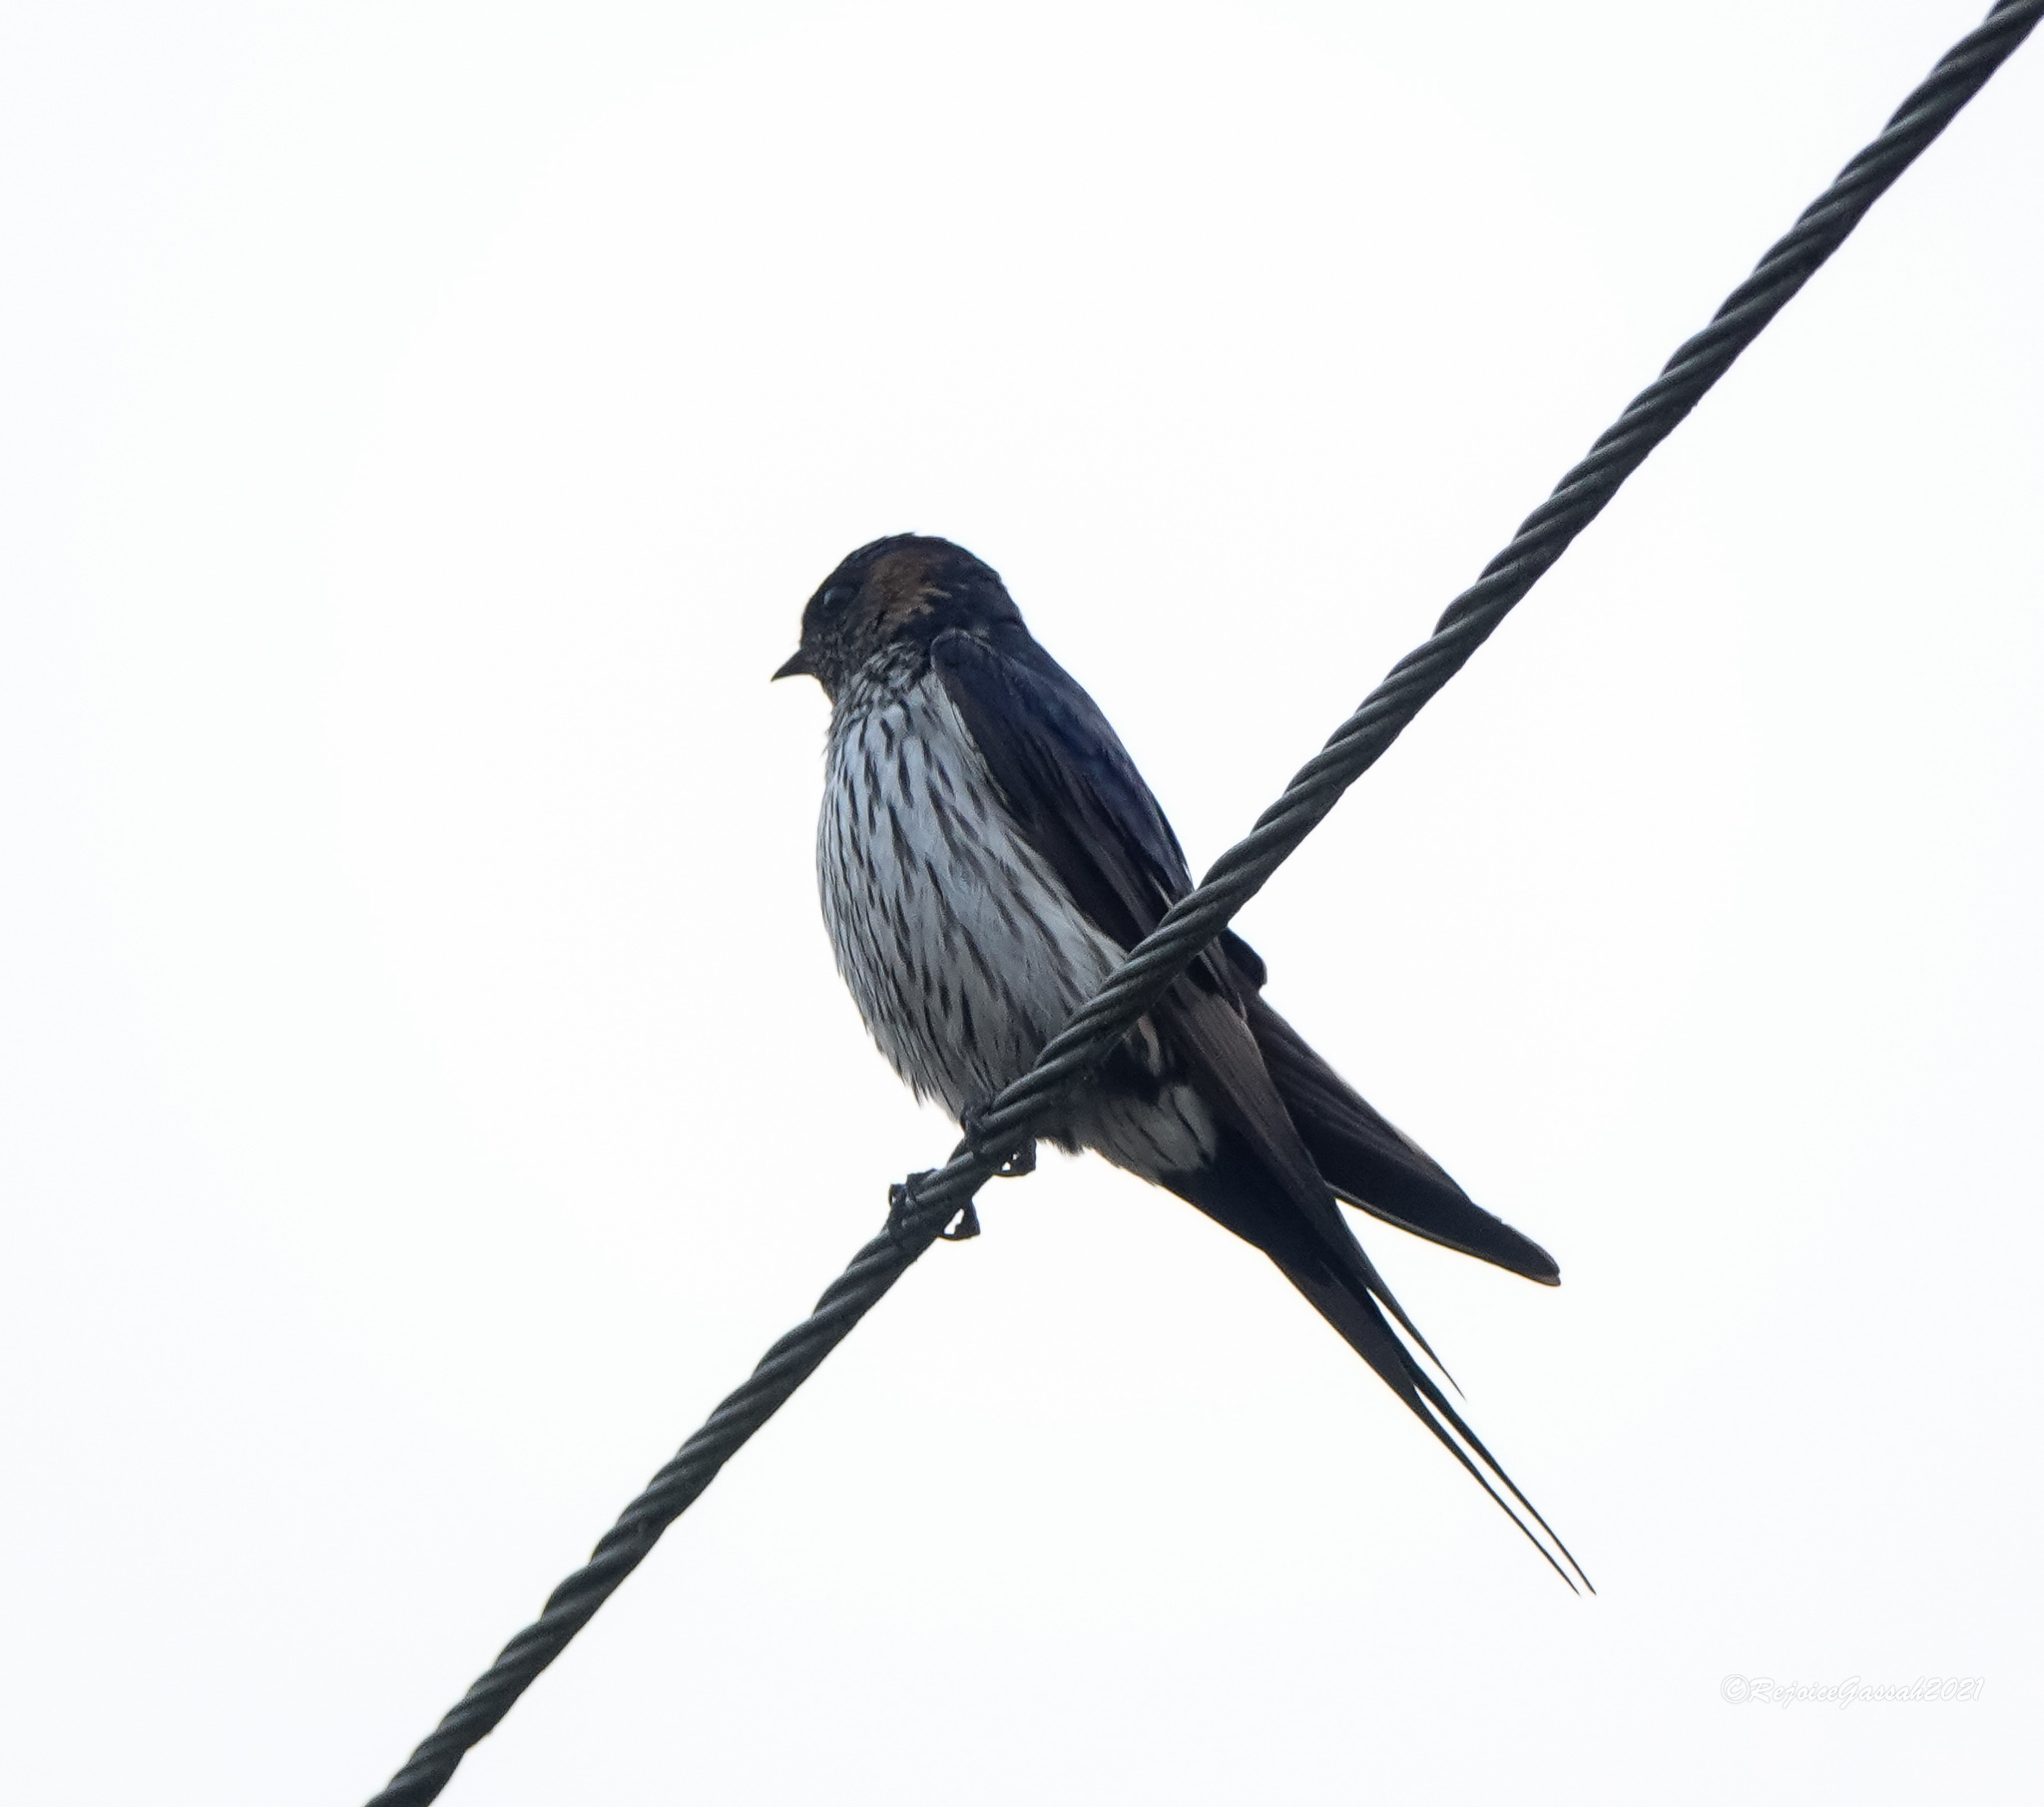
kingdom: Animalia
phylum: Chordata
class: Aves
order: Passeriformes
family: Hirundinidae
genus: Cecropis
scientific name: Cecropis daurica
